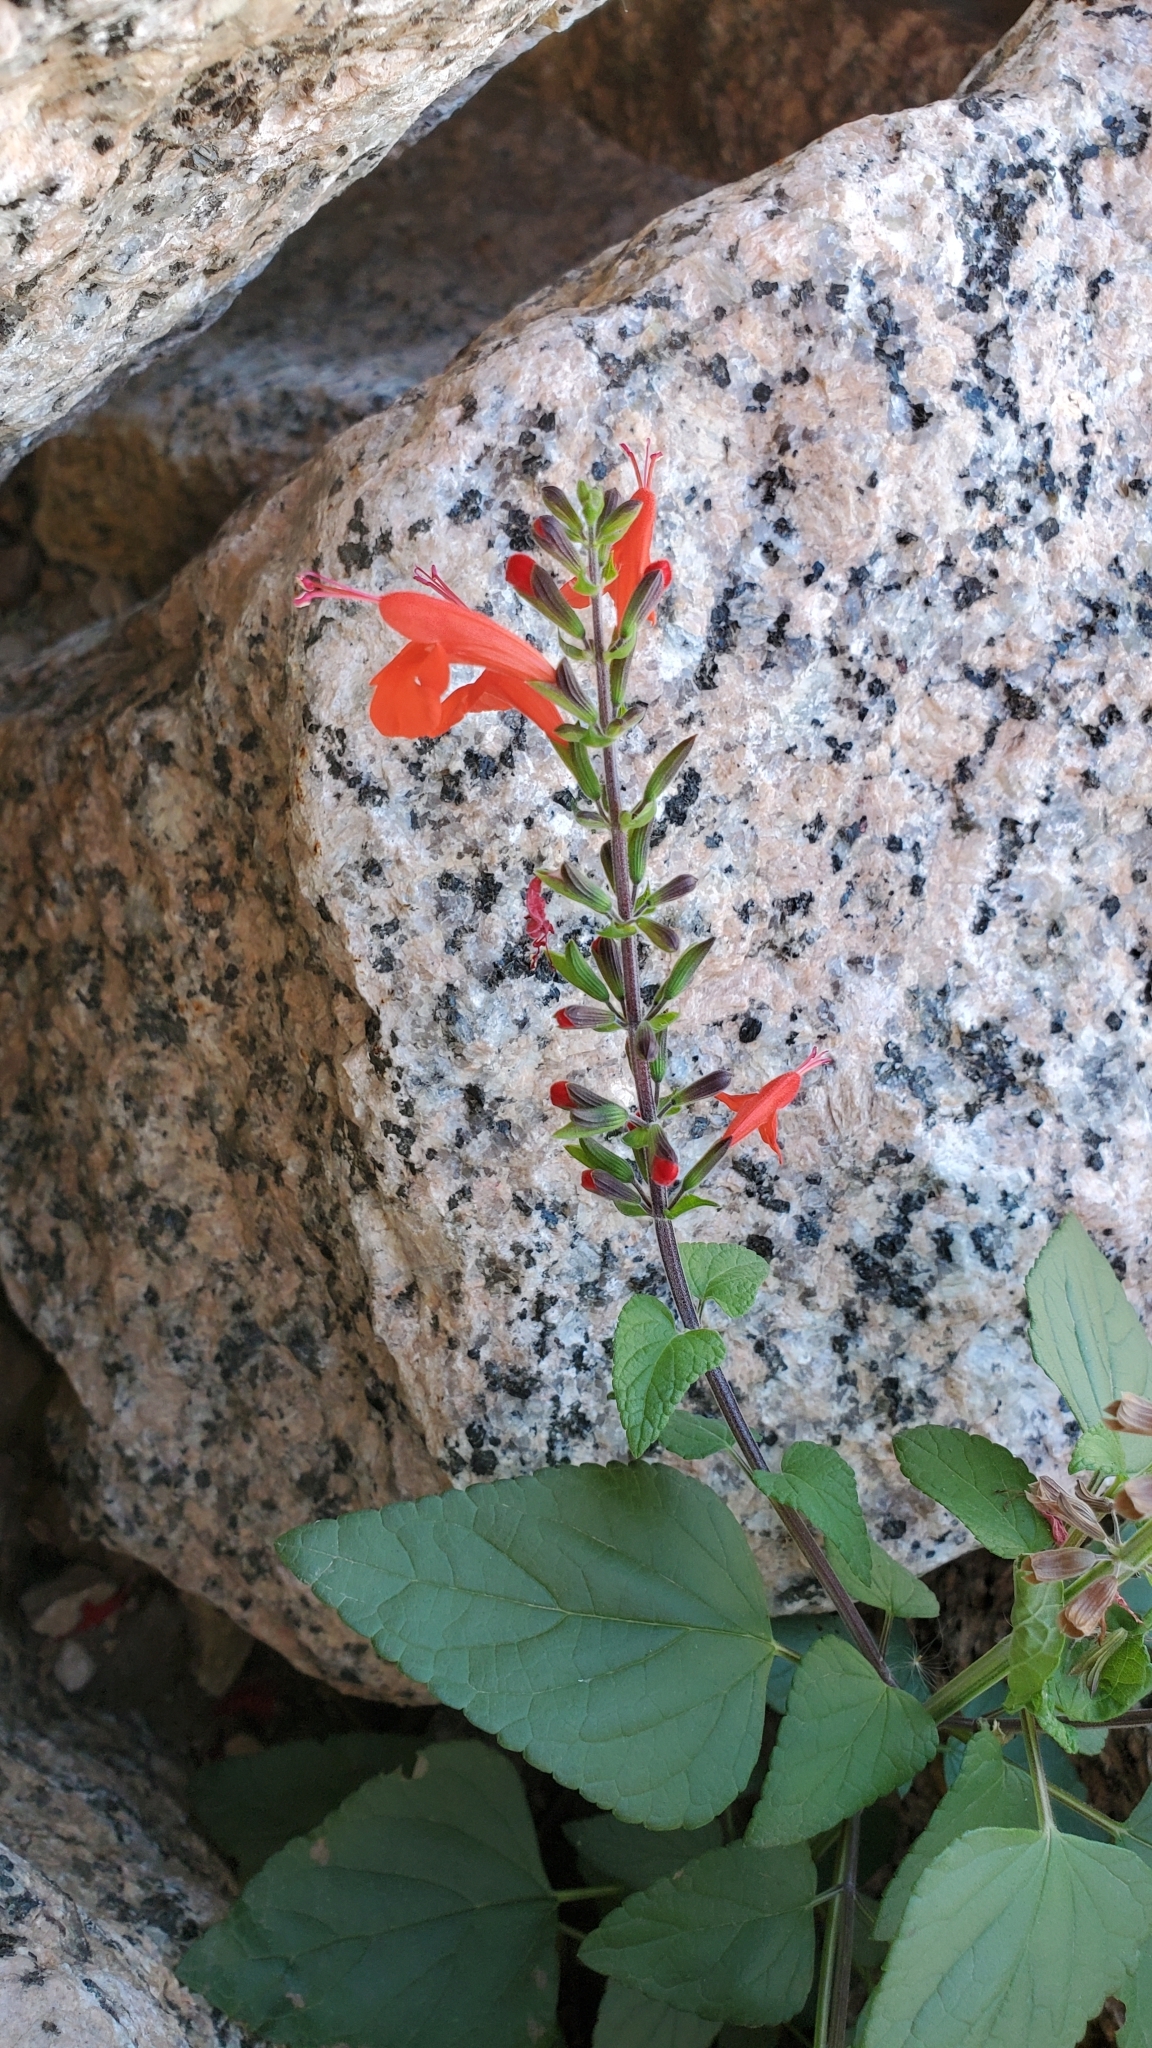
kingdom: Plantae
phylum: Tracheophyta
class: Magnoliopsida
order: Lamiales
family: Lamiaceae
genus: Salvia
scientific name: Salvia coccinea
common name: Blood sage
